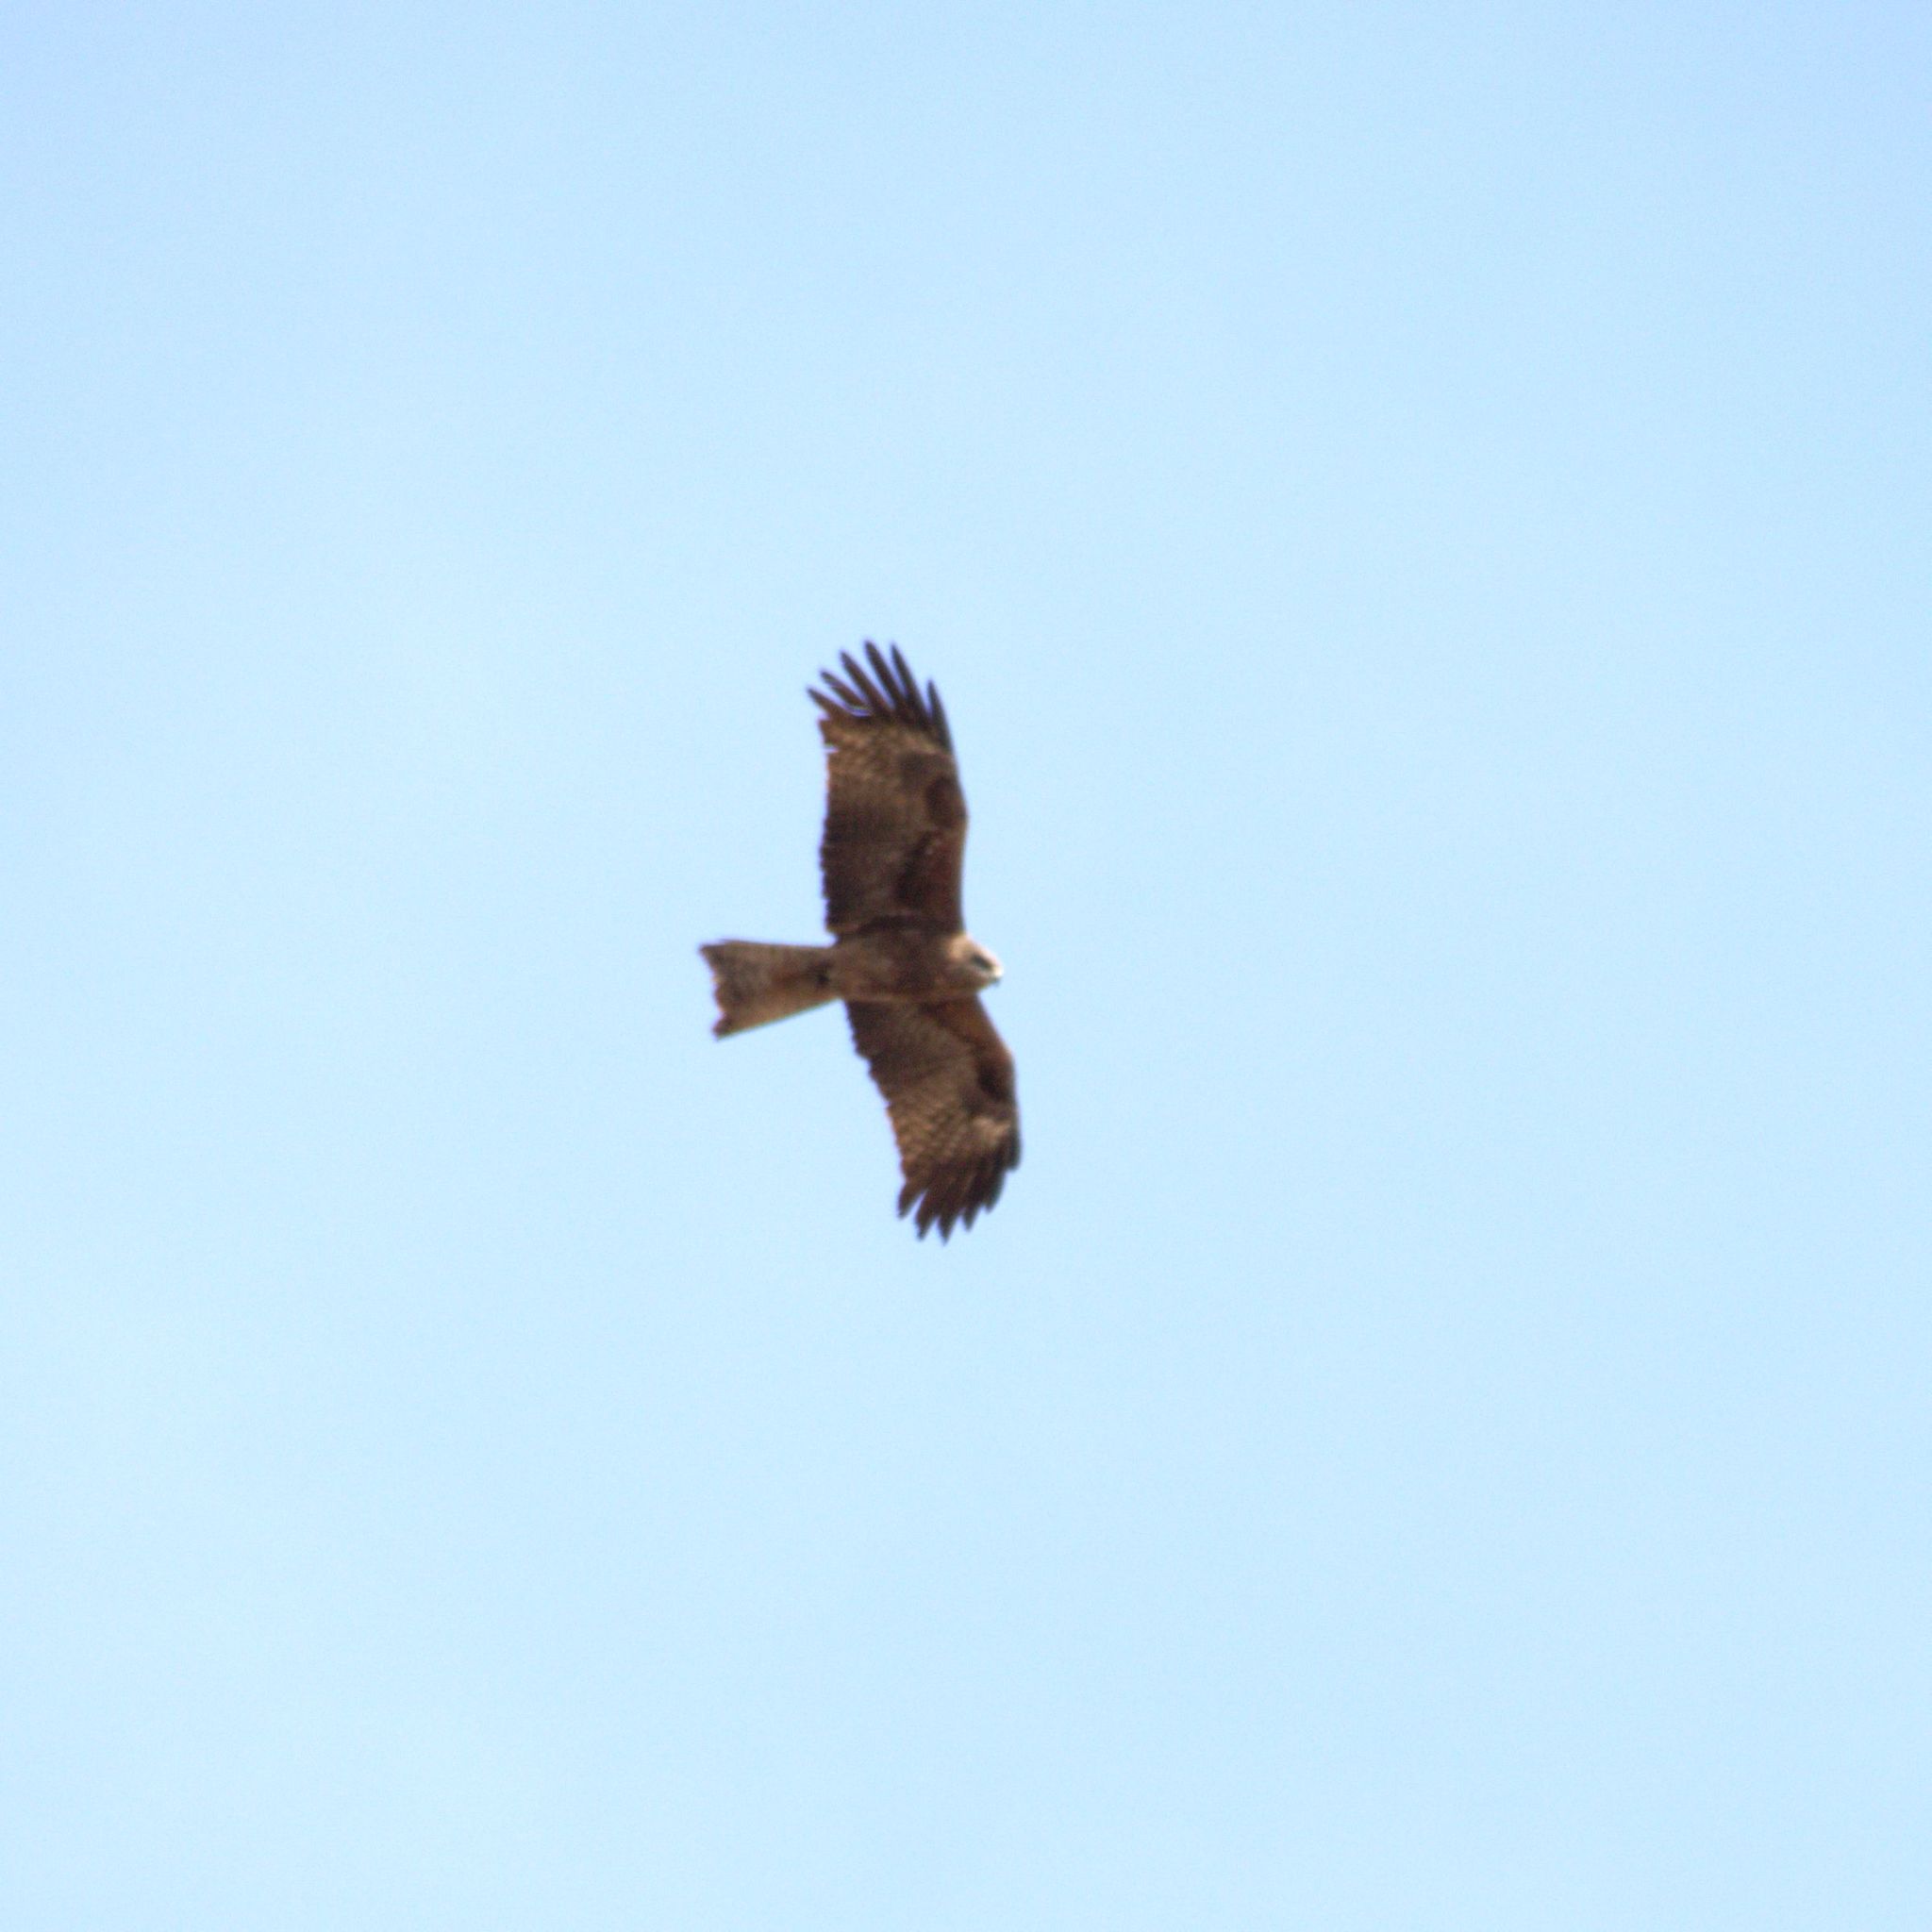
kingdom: Animalia
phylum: Chordata
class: Aves
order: Accipitriformes
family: Accipitridae
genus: Milvus
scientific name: Milvus migrans
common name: Black kite
